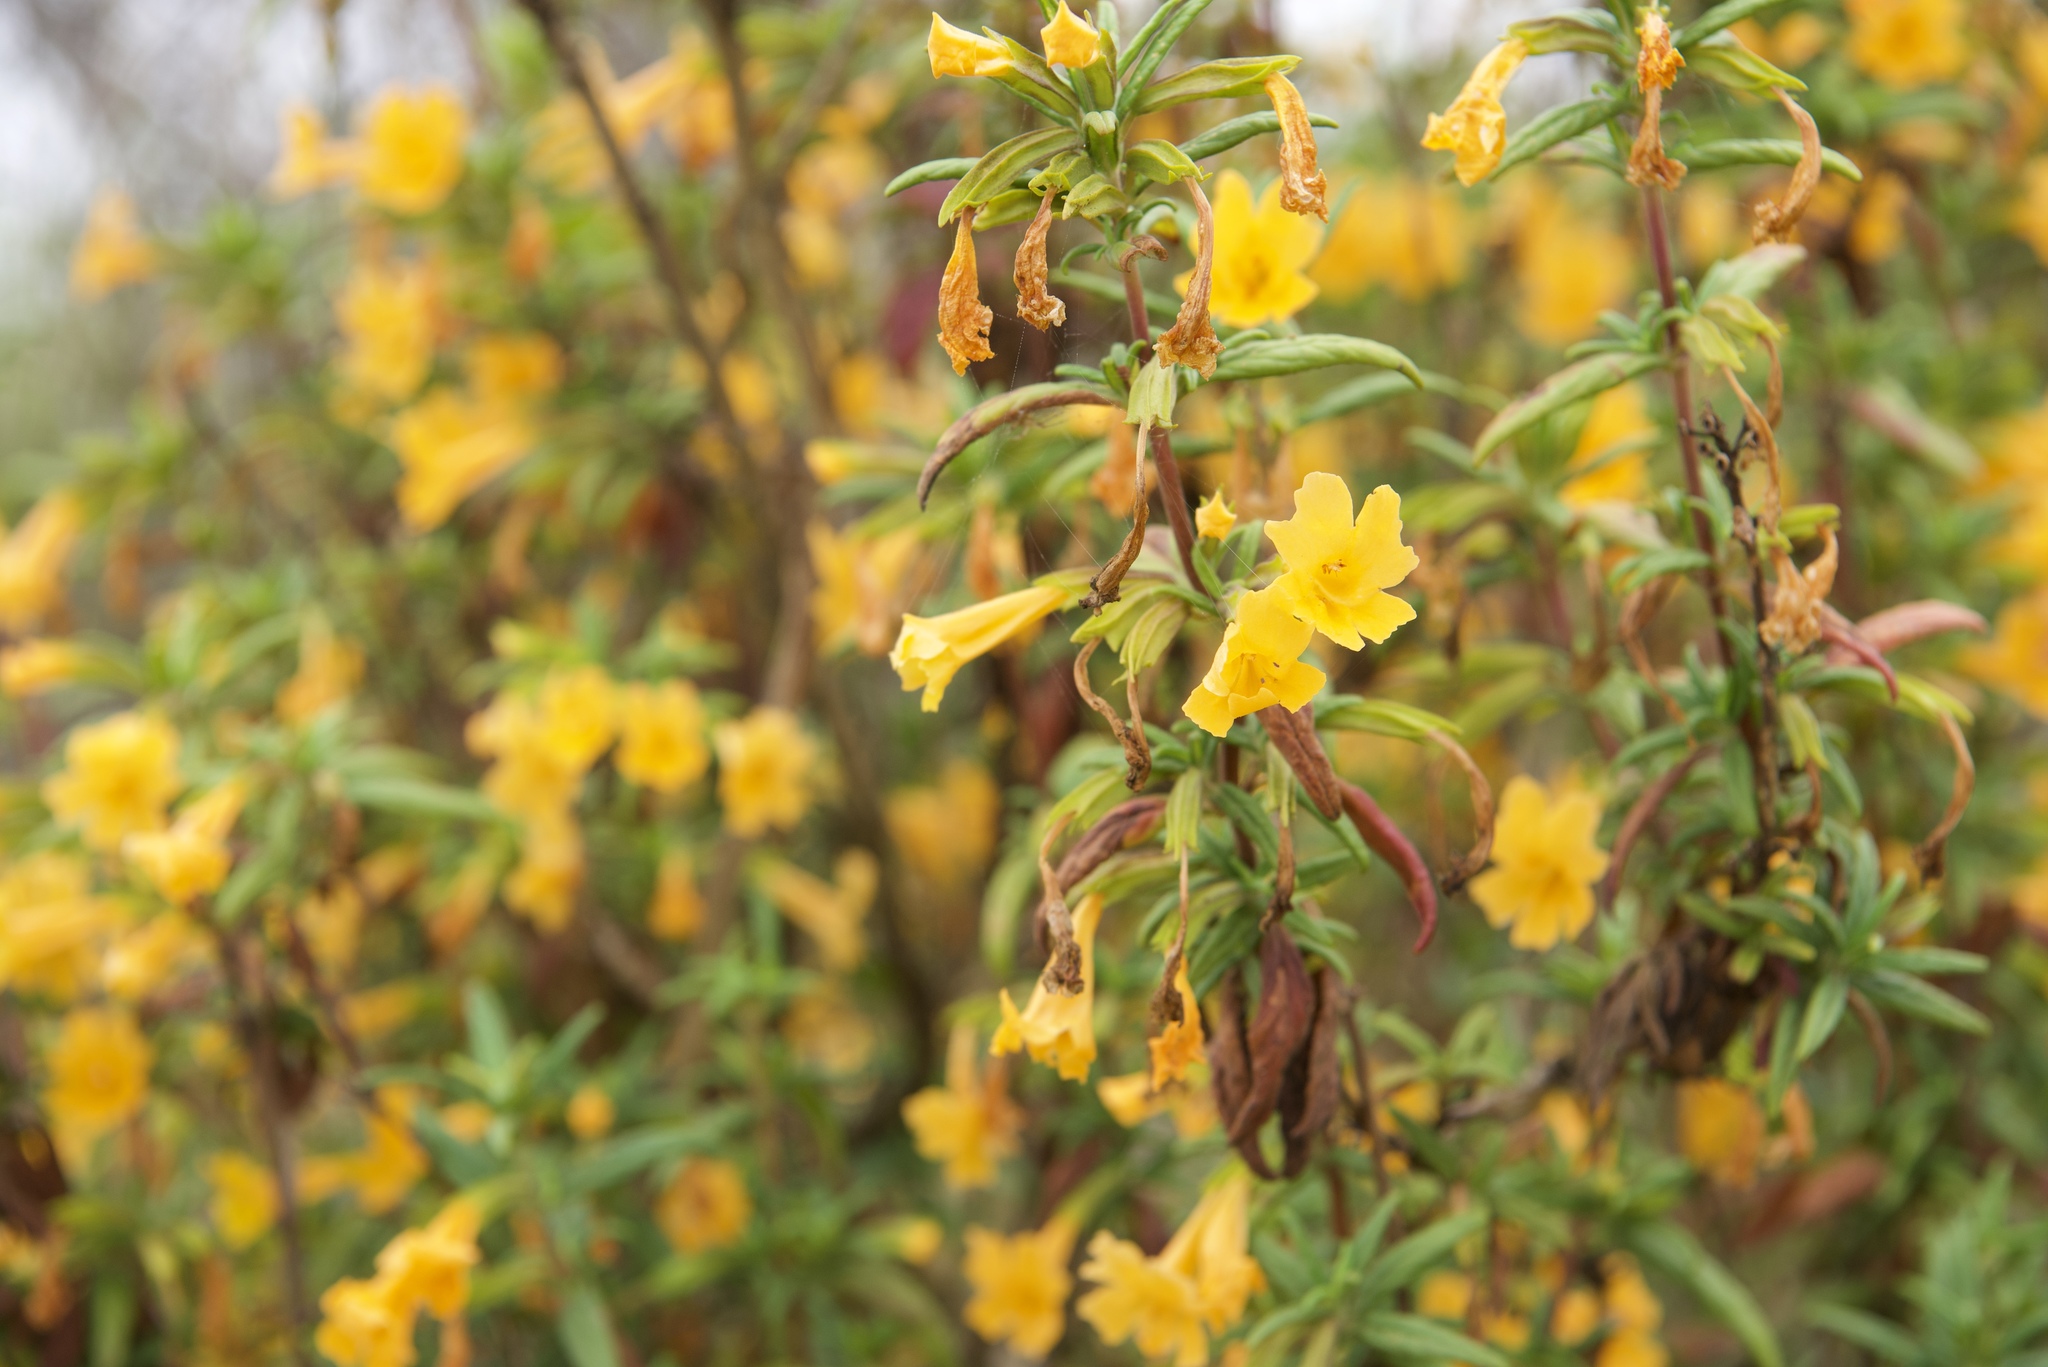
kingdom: Plantae
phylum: Tracheophyta
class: Magnoliopsida
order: Lamiales
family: Phrymaceae
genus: Diplacus
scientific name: Diplacus aurantiacus
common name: Bush monkey-flower
